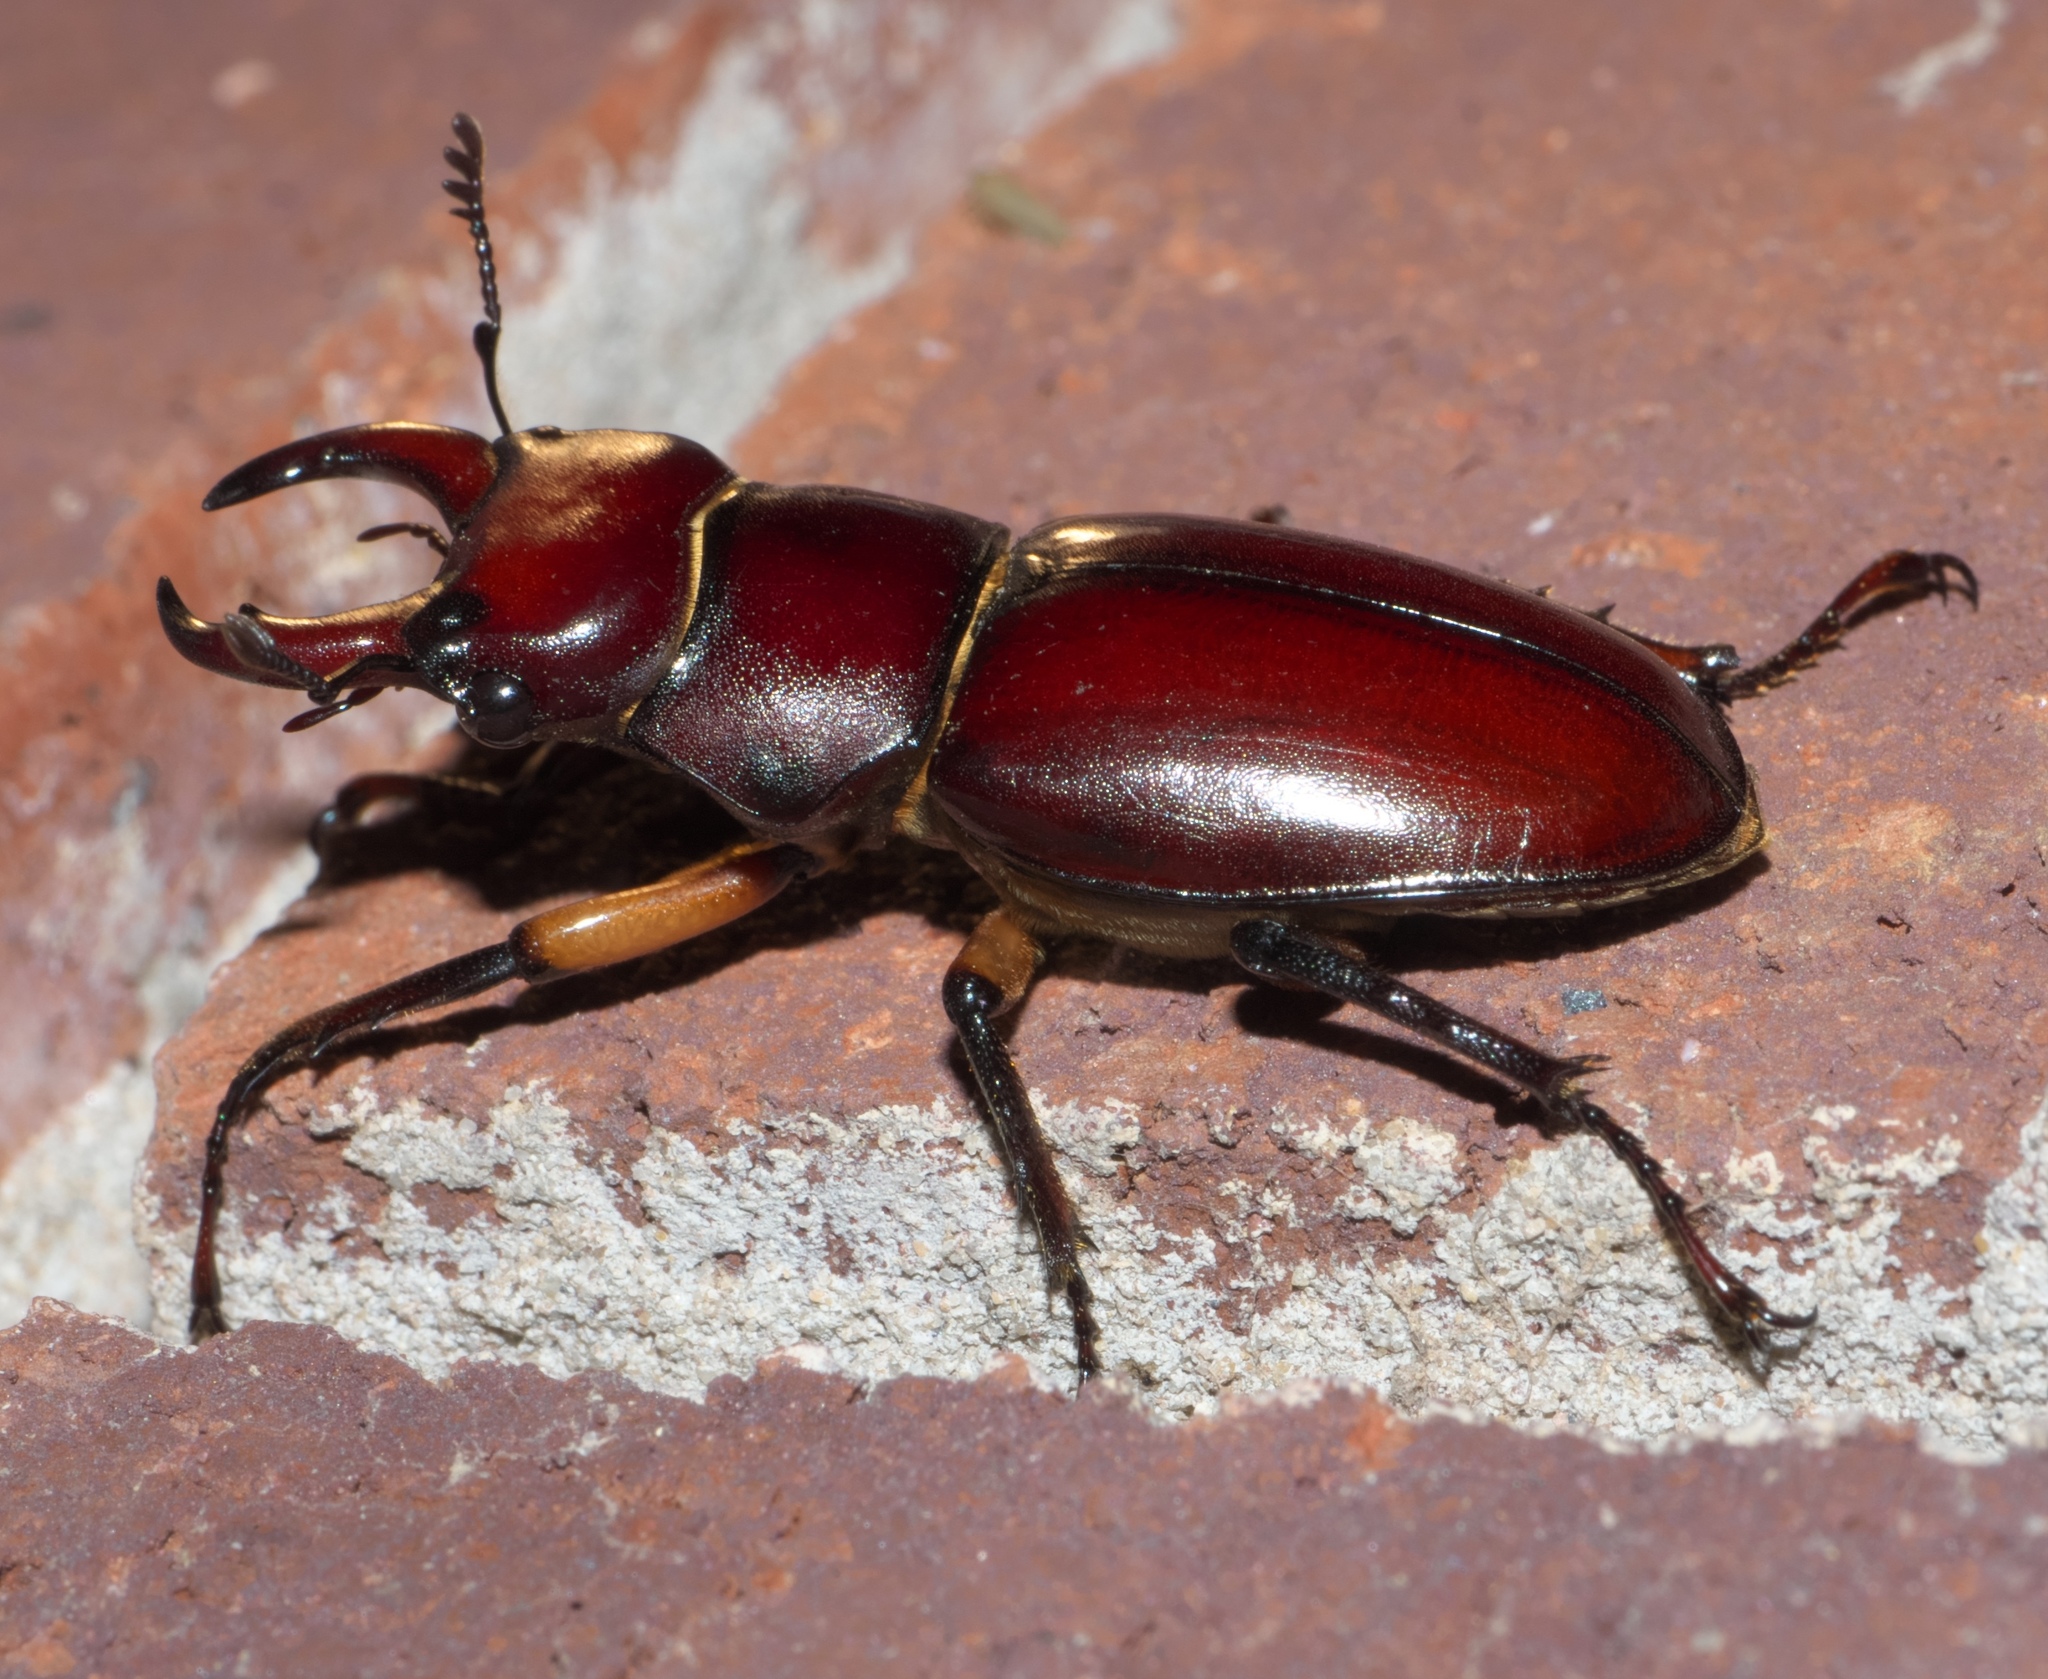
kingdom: Animalia
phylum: Arthropoda
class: Insecta
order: Coleoptera
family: Lucanidae
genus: Lucanus
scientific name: Lucanus capreolus
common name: Stag beetle
